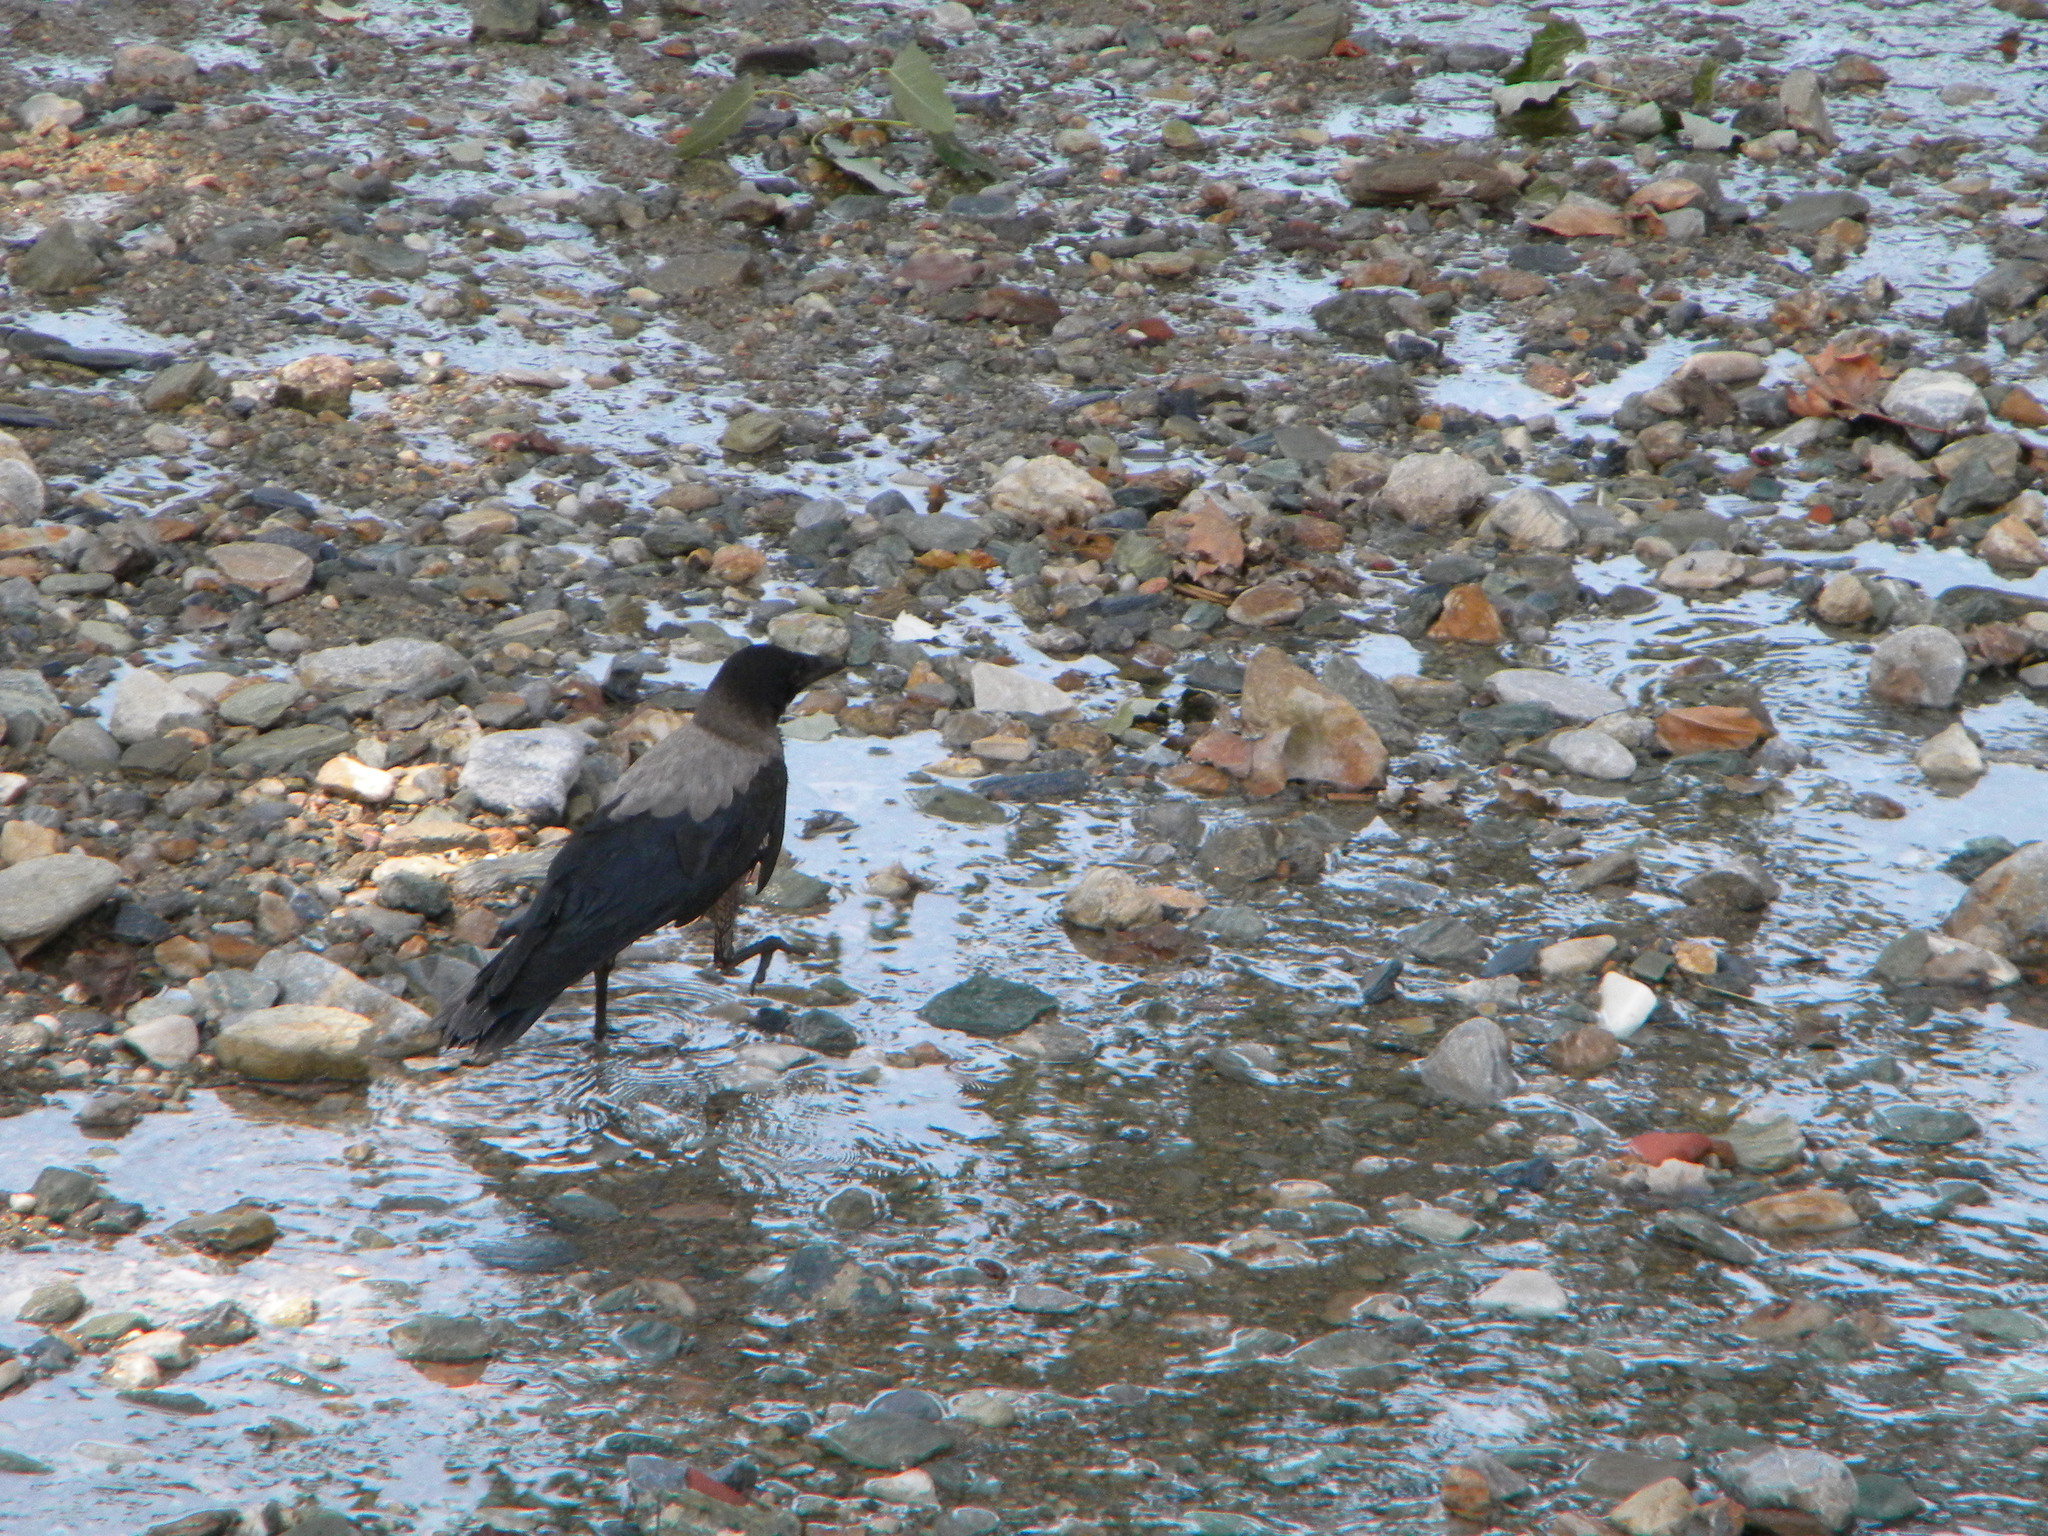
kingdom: Animalia
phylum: Chordata
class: Aves
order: Passeriformes
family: Corvidae
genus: Corvus
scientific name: Corvus cornix
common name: Hooded crow
